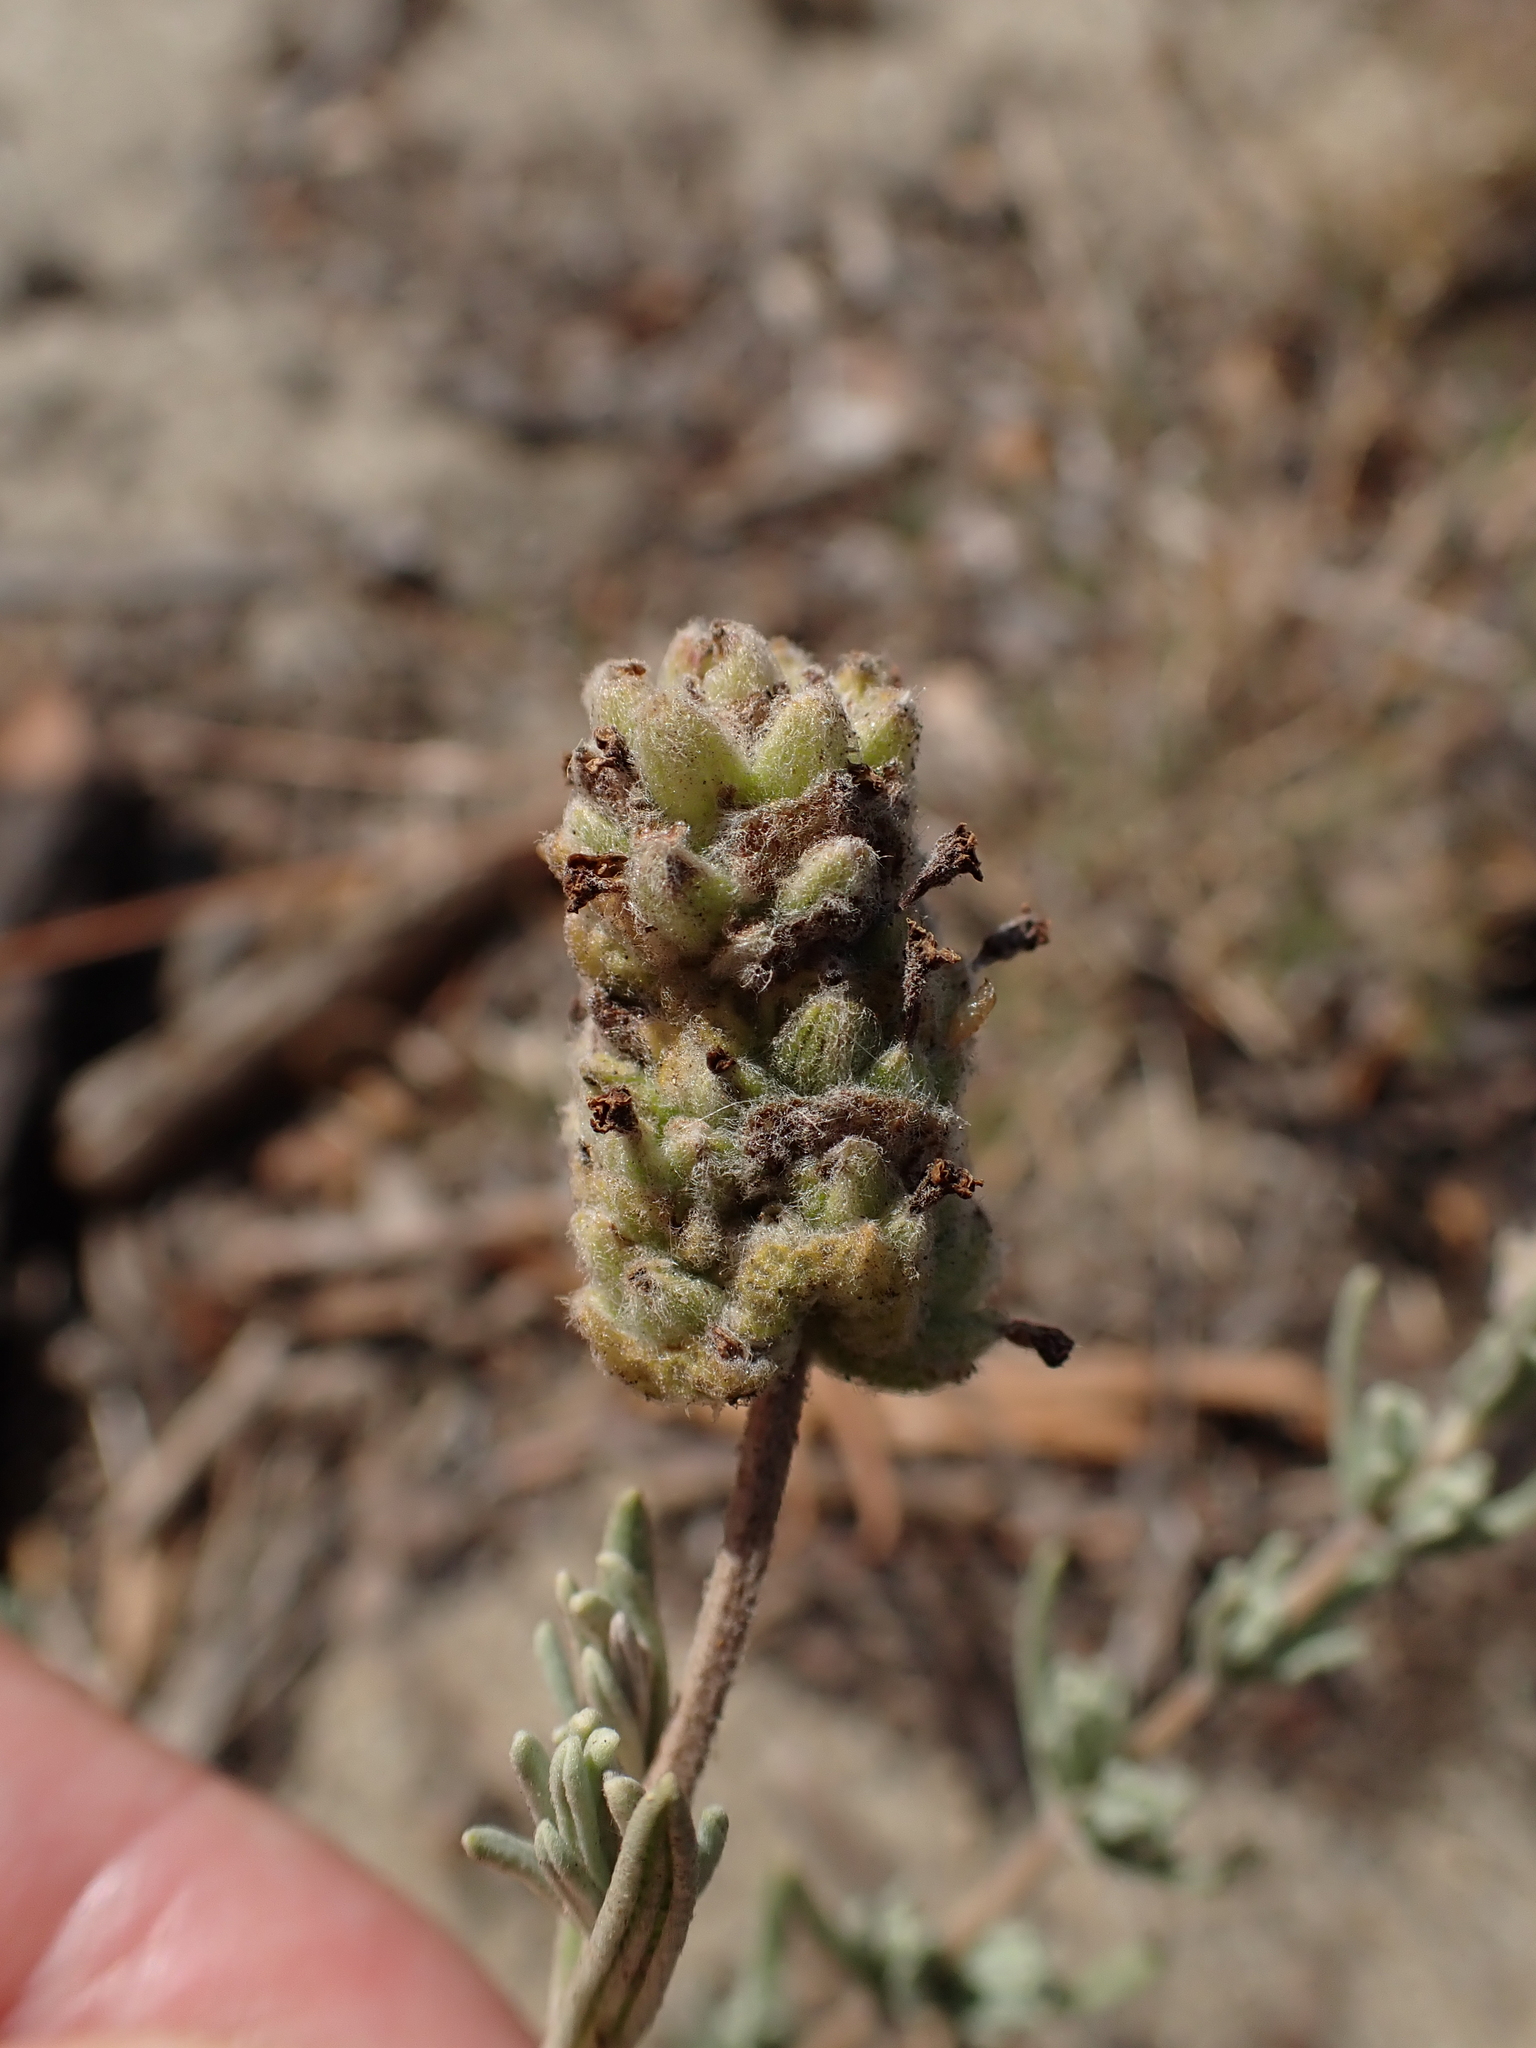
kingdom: Plantae
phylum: Tracheophyta
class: Magnoliopsida
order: Lamiales
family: Lamiaceae
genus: Lavandula
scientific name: Lavandula stoechas
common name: French lavender
